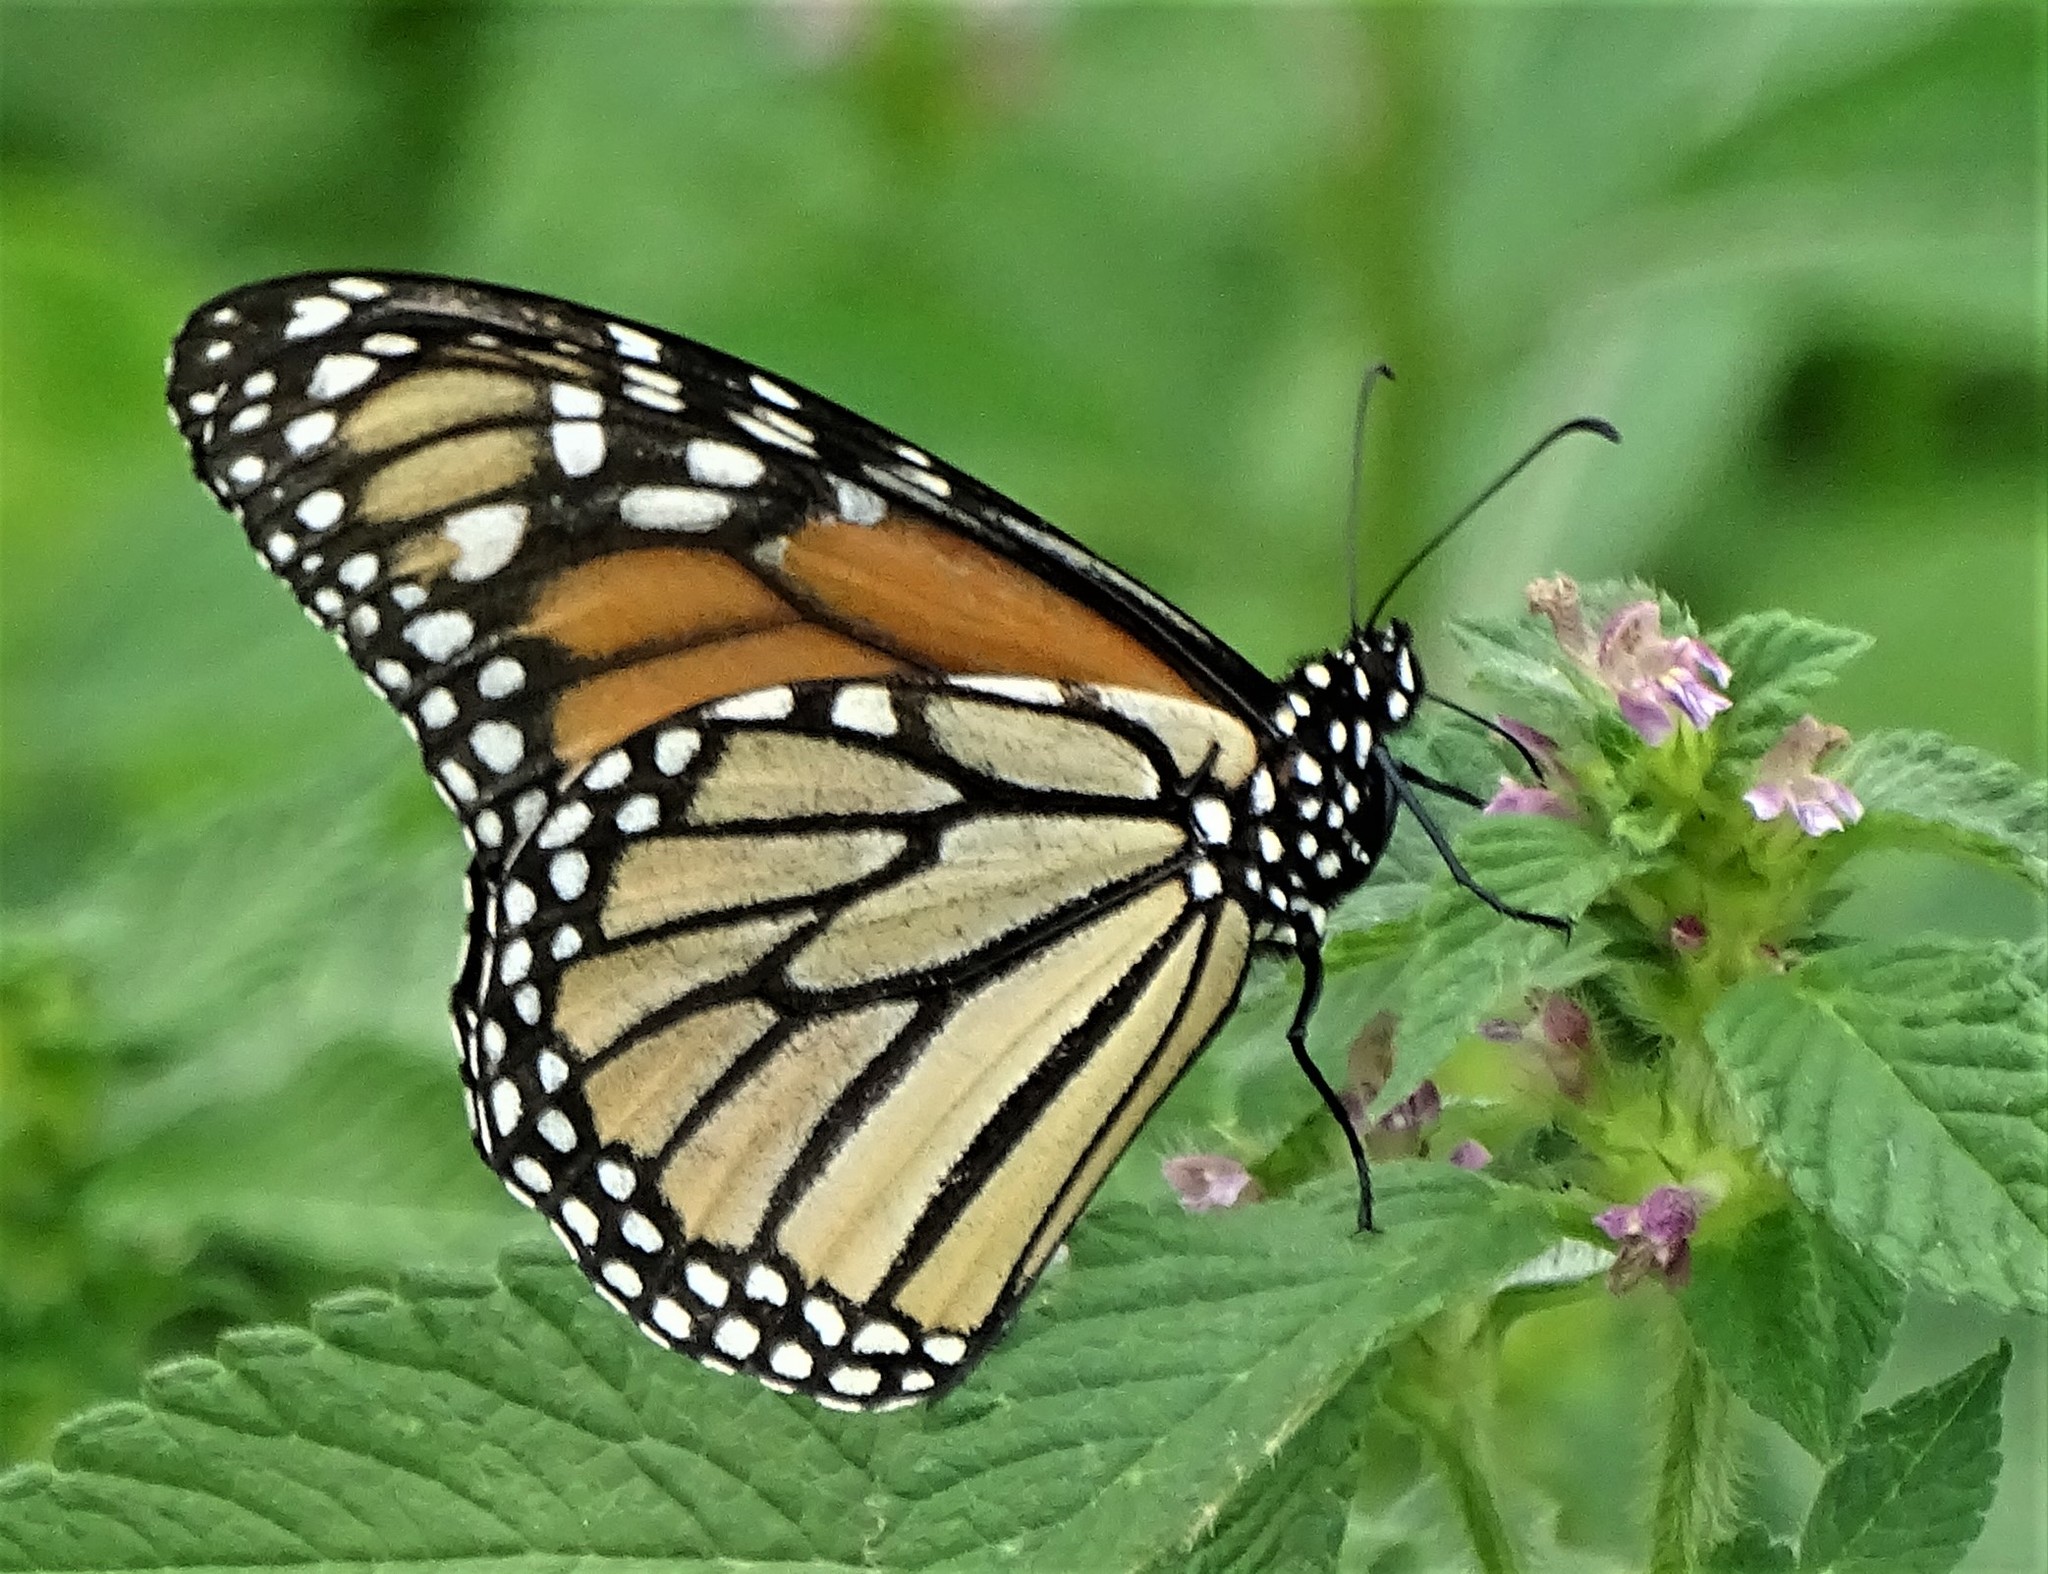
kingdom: Animalia
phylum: Arthropoda
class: Insecta
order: Lepidoptera
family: Nymphalidae
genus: Danaus
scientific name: Danaus plexippus
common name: Monarch
